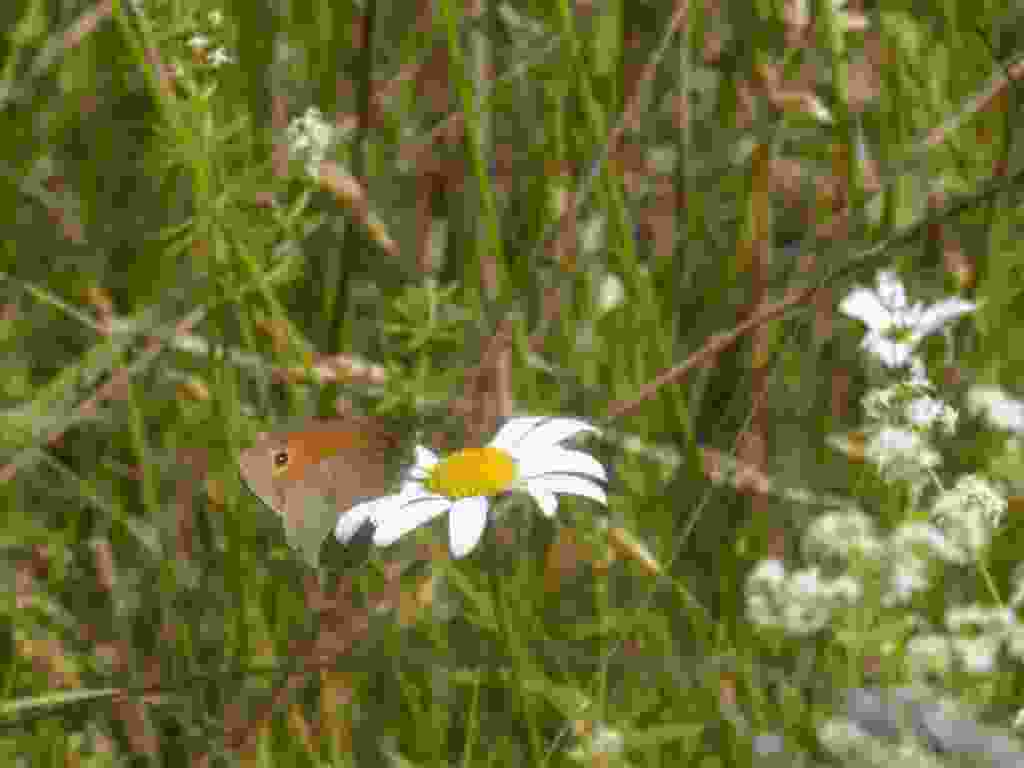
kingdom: Animalia
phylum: Arthropoda
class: Insecta
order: Lepidoptera
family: Nymphalidae
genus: Maniola
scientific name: Maniola jurtina
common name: Meadow brown
